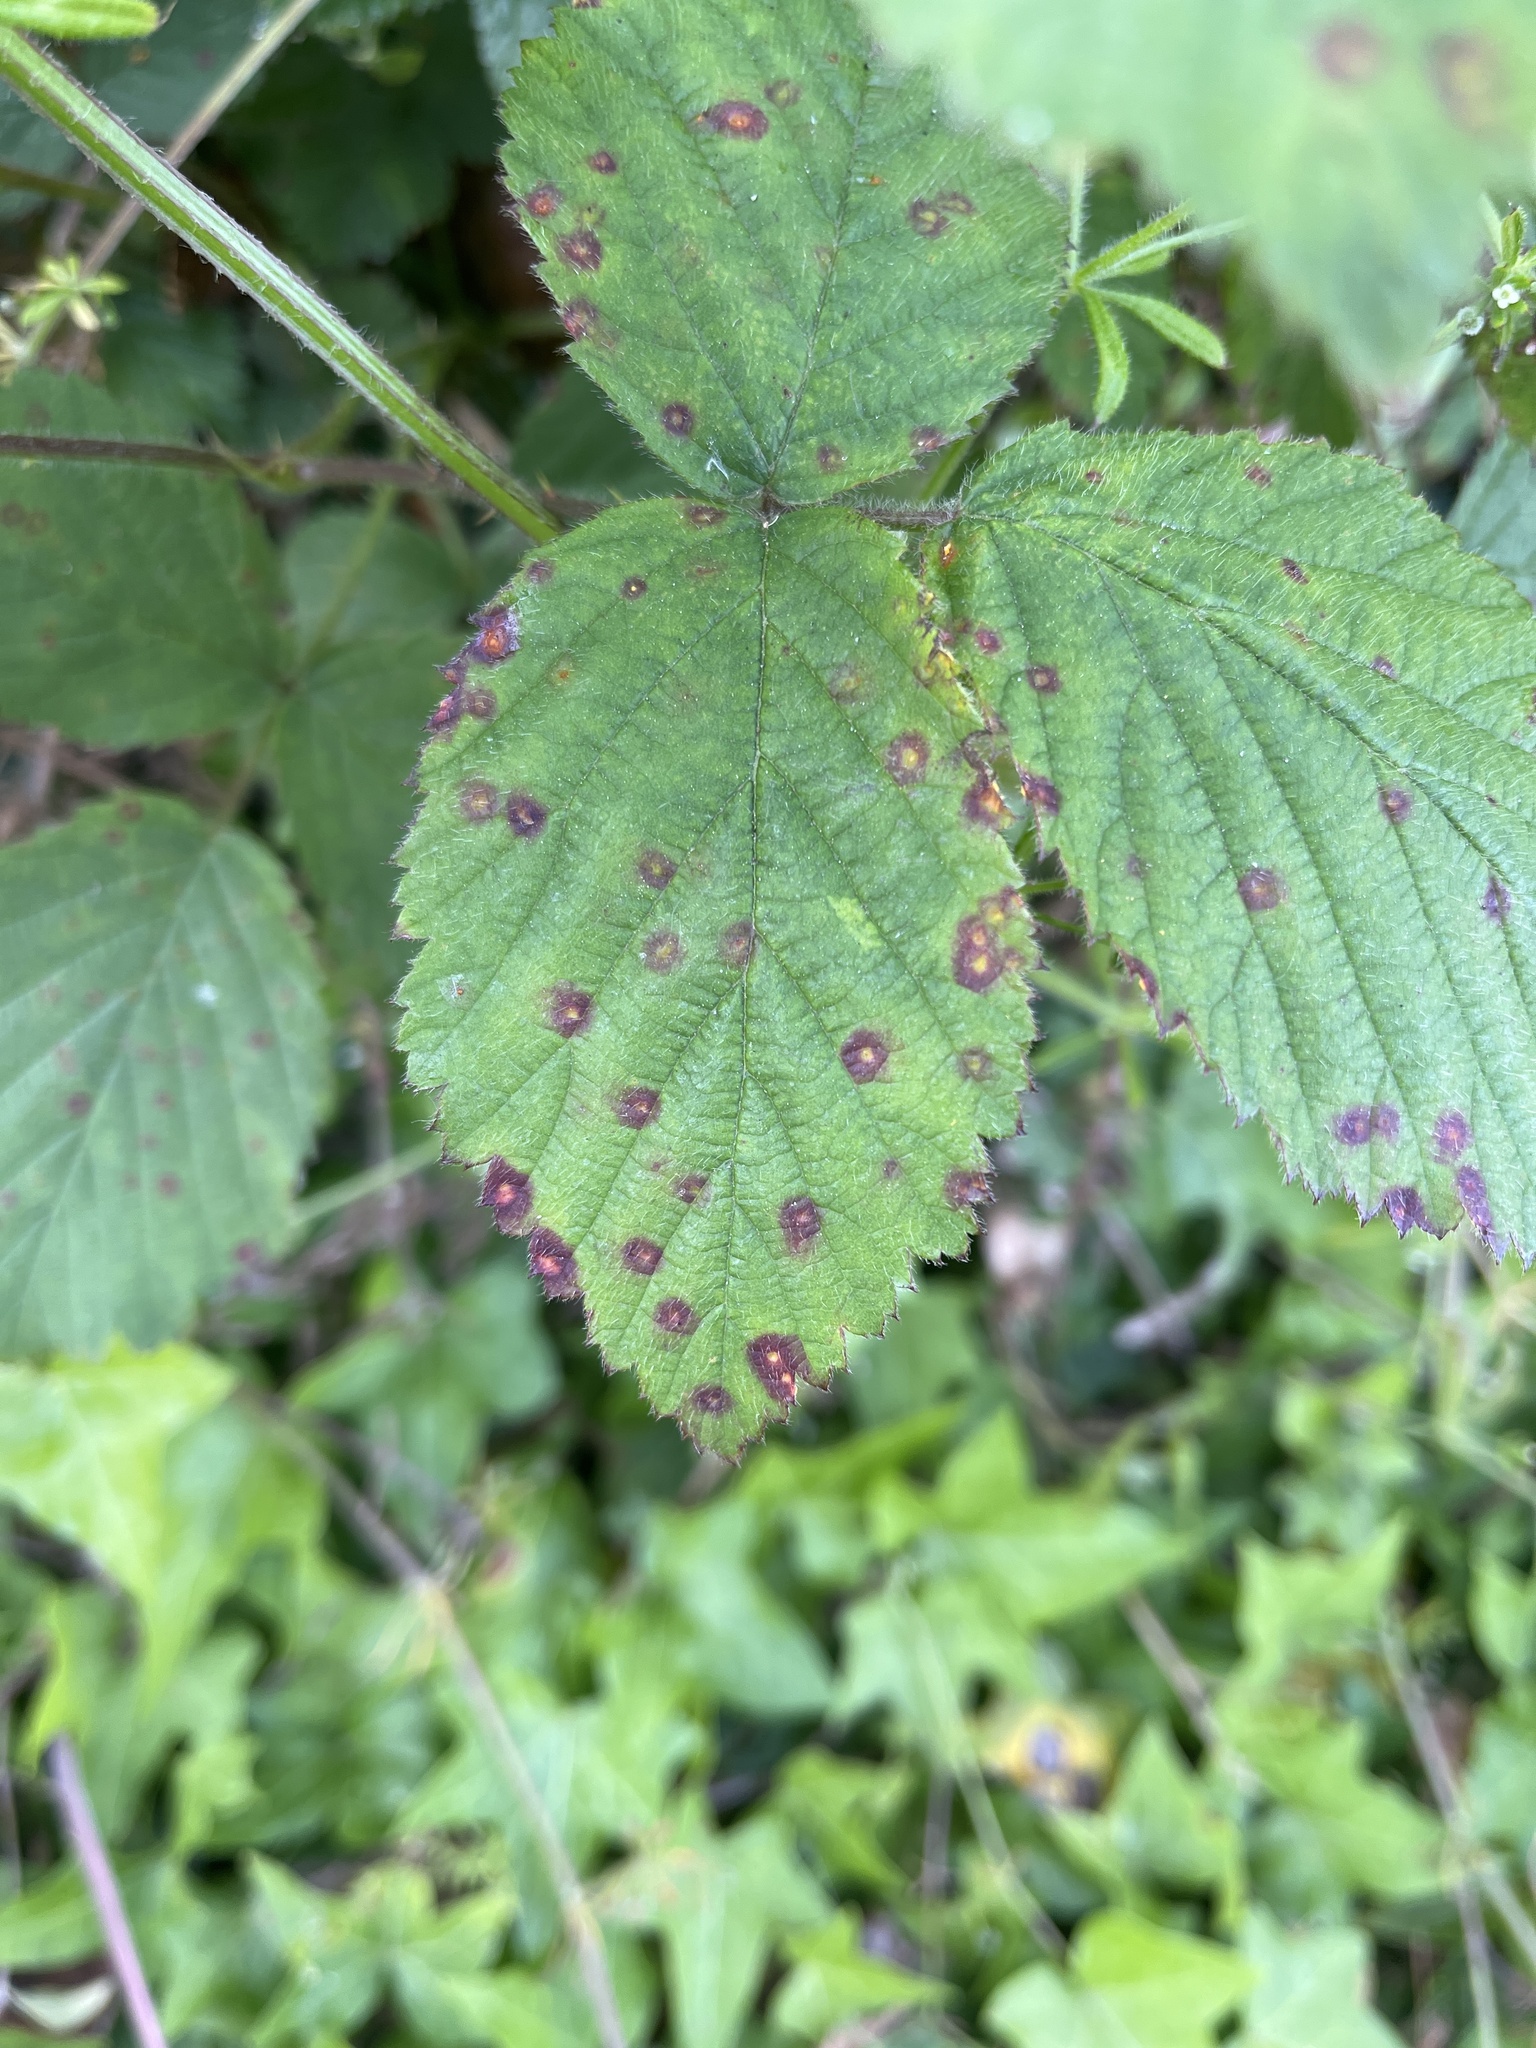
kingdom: Fungi
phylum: Basidiomycota
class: Pucciniomycetes
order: Pucciniales
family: Phragmidiaceae
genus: Phragmidium
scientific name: Phragmidium violaceum
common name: Violet bramble rust
